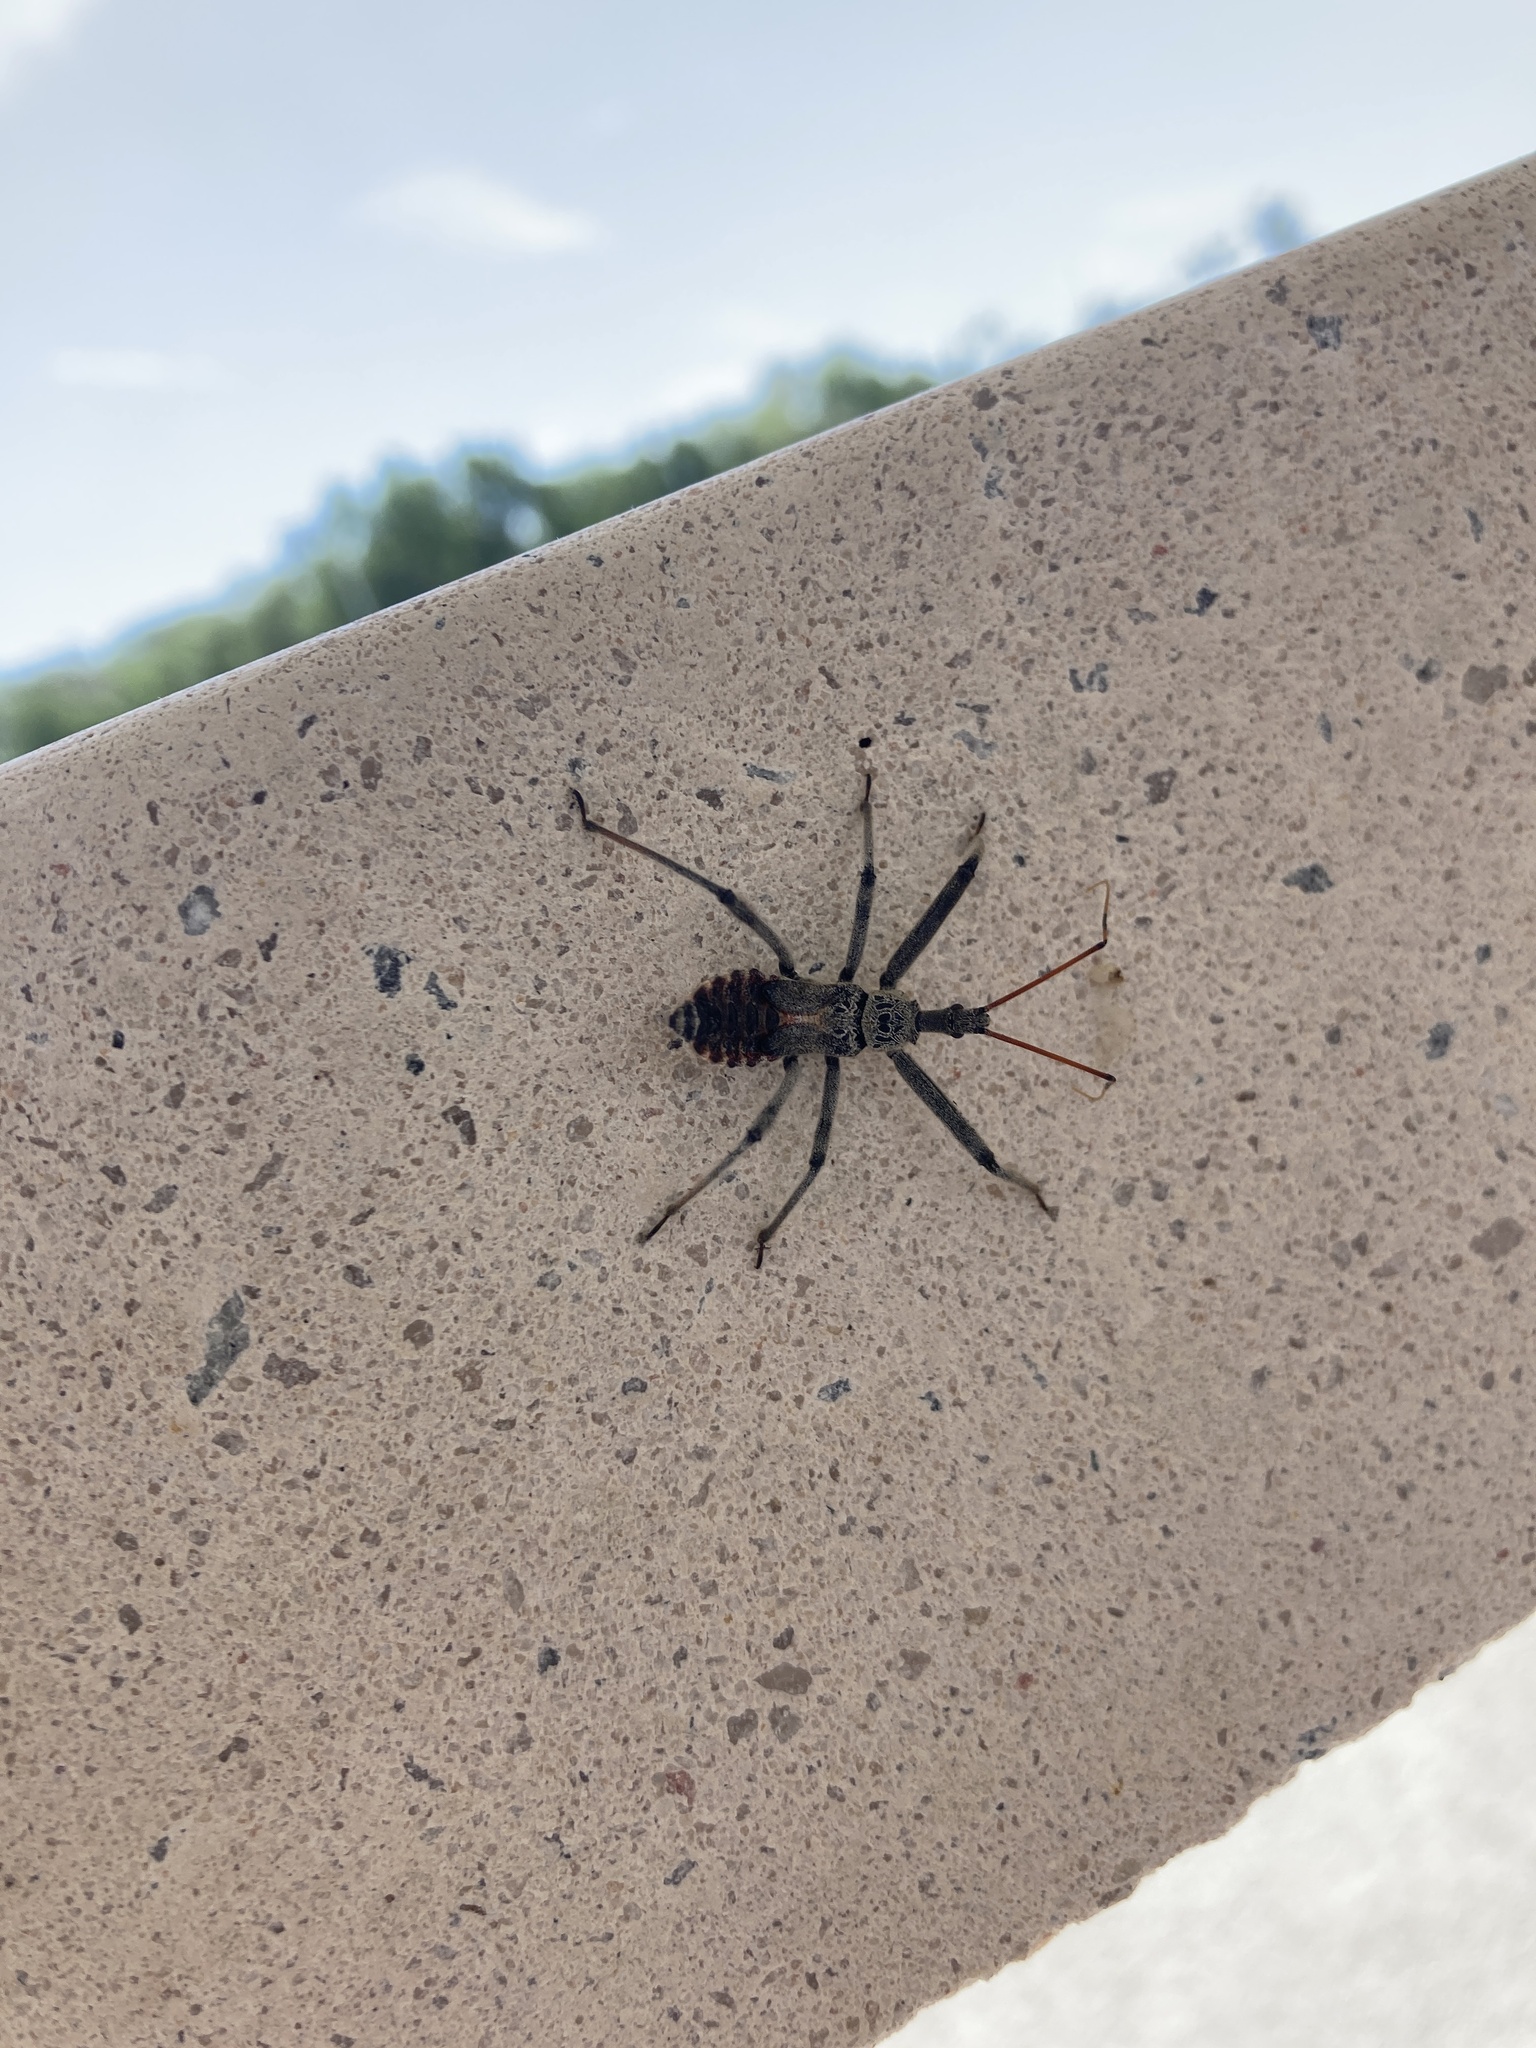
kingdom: Animalia
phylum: Arthropoda
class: Insecta
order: Hemiptera
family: Reduviidae
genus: Arilus
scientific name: Arilus cristatus
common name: North american wheel bug
